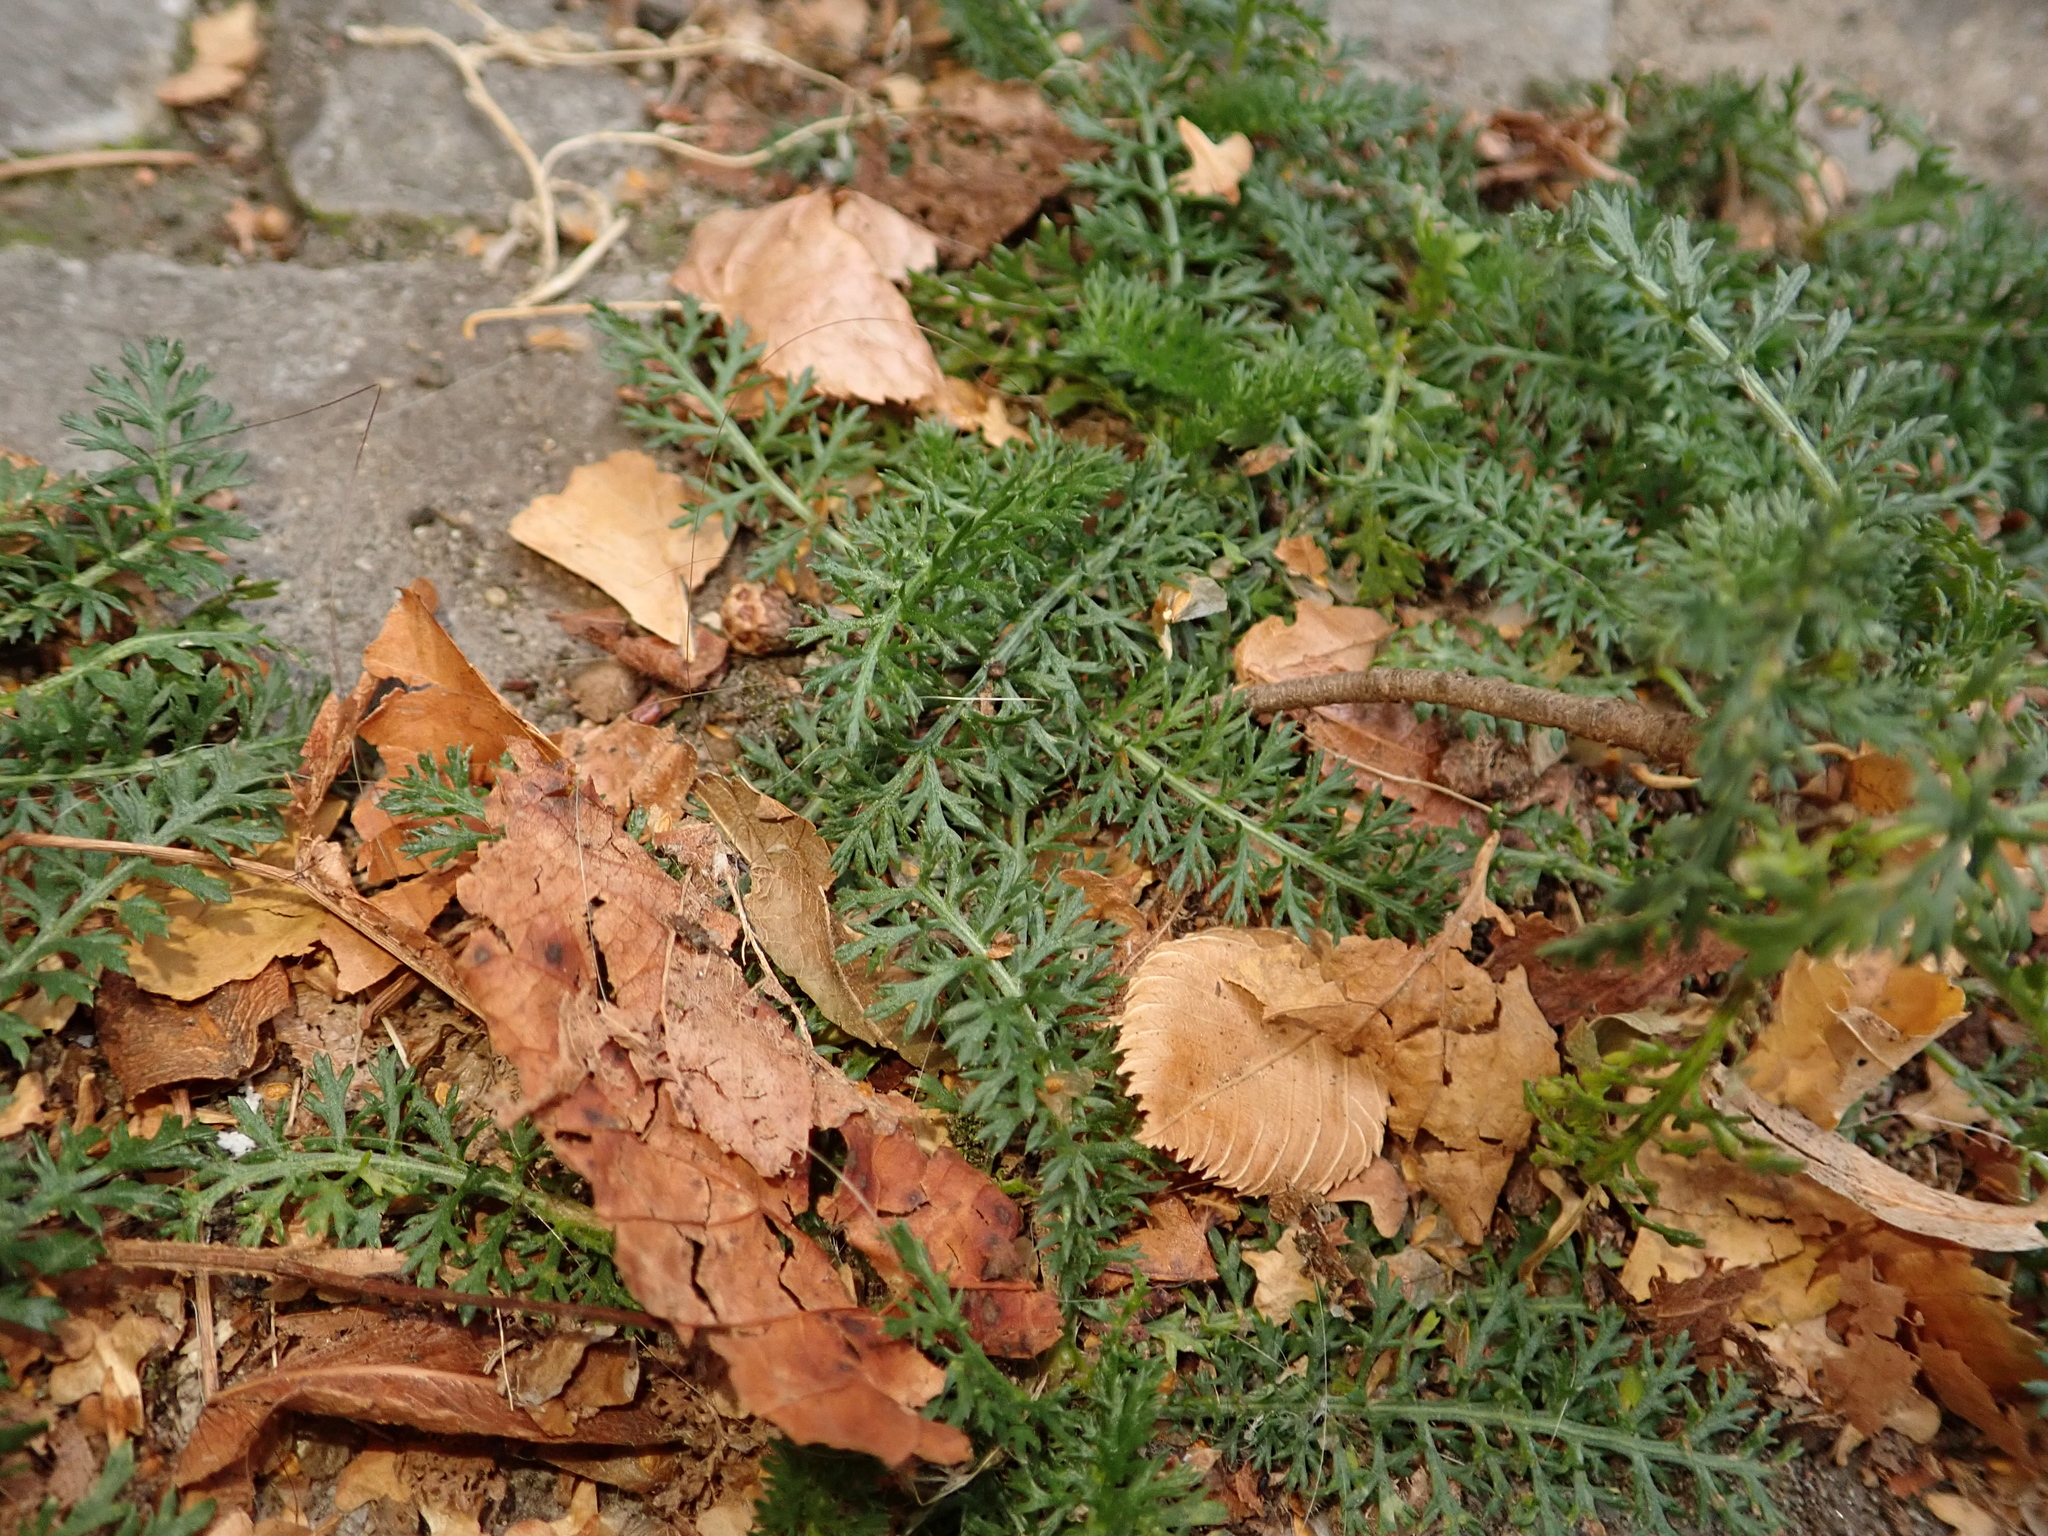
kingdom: Plantae
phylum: Tracheophyta
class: Magnoliopsida
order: Asterales
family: Asteraceae
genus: Achillea
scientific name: Achillea millefolium
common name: Yarrow
